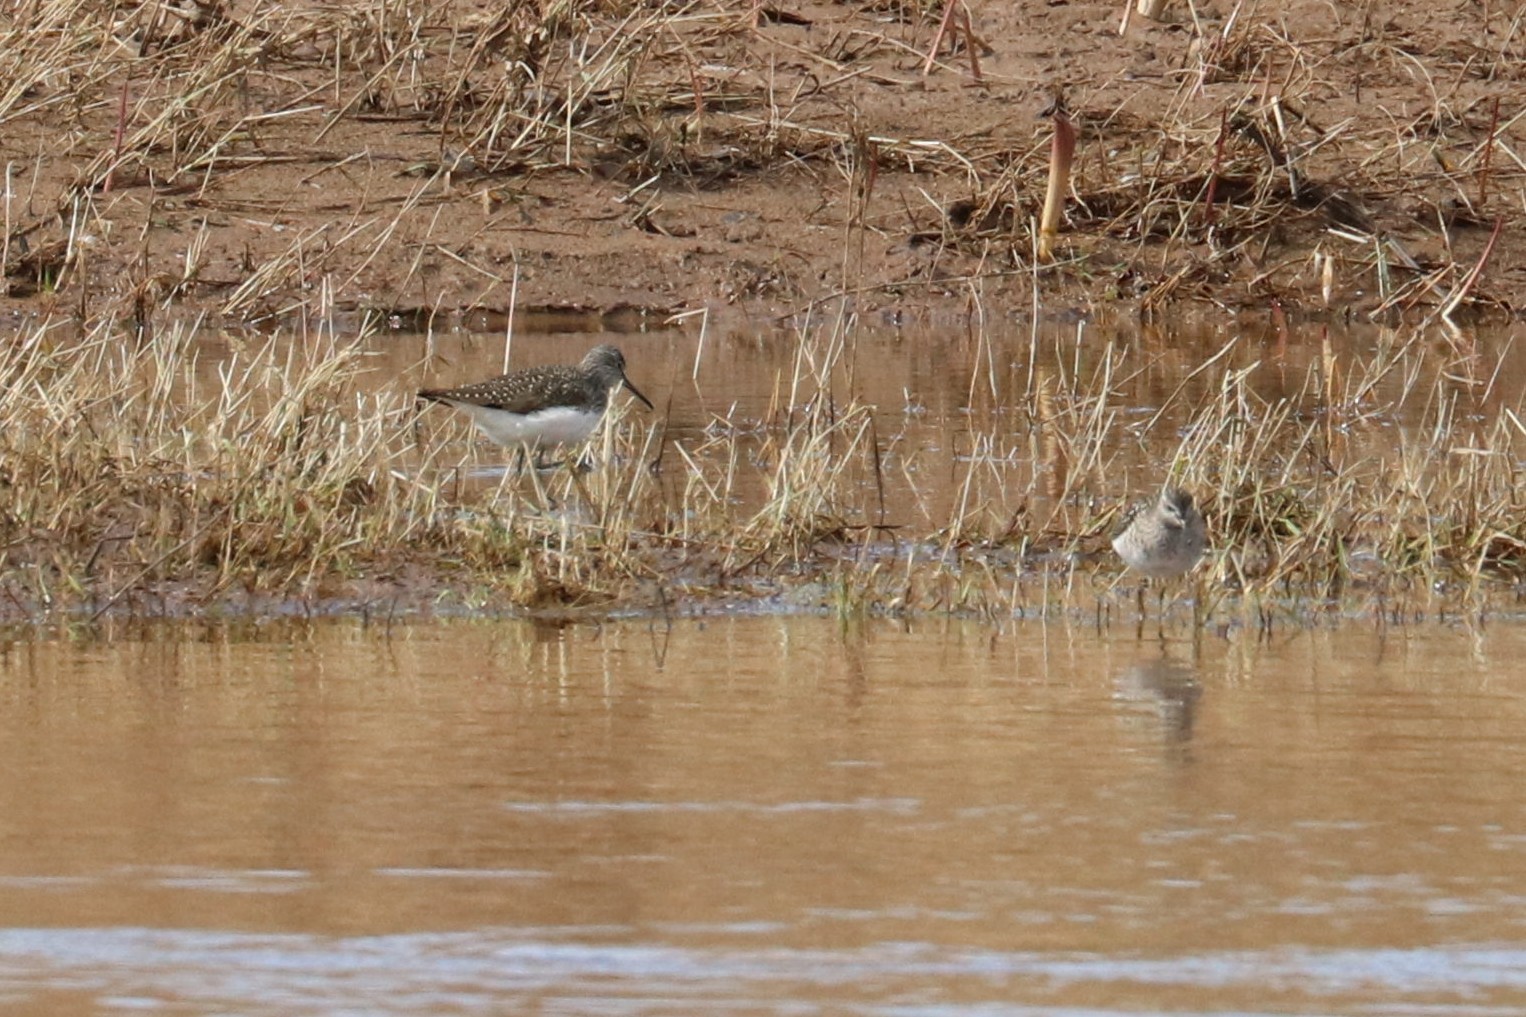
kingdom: Animalia
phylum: Chordata
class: Aves
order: Charadriiformes
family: Scolopacidae
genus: Tringa
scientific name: Tringa ochropus
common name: Green sandpiper
